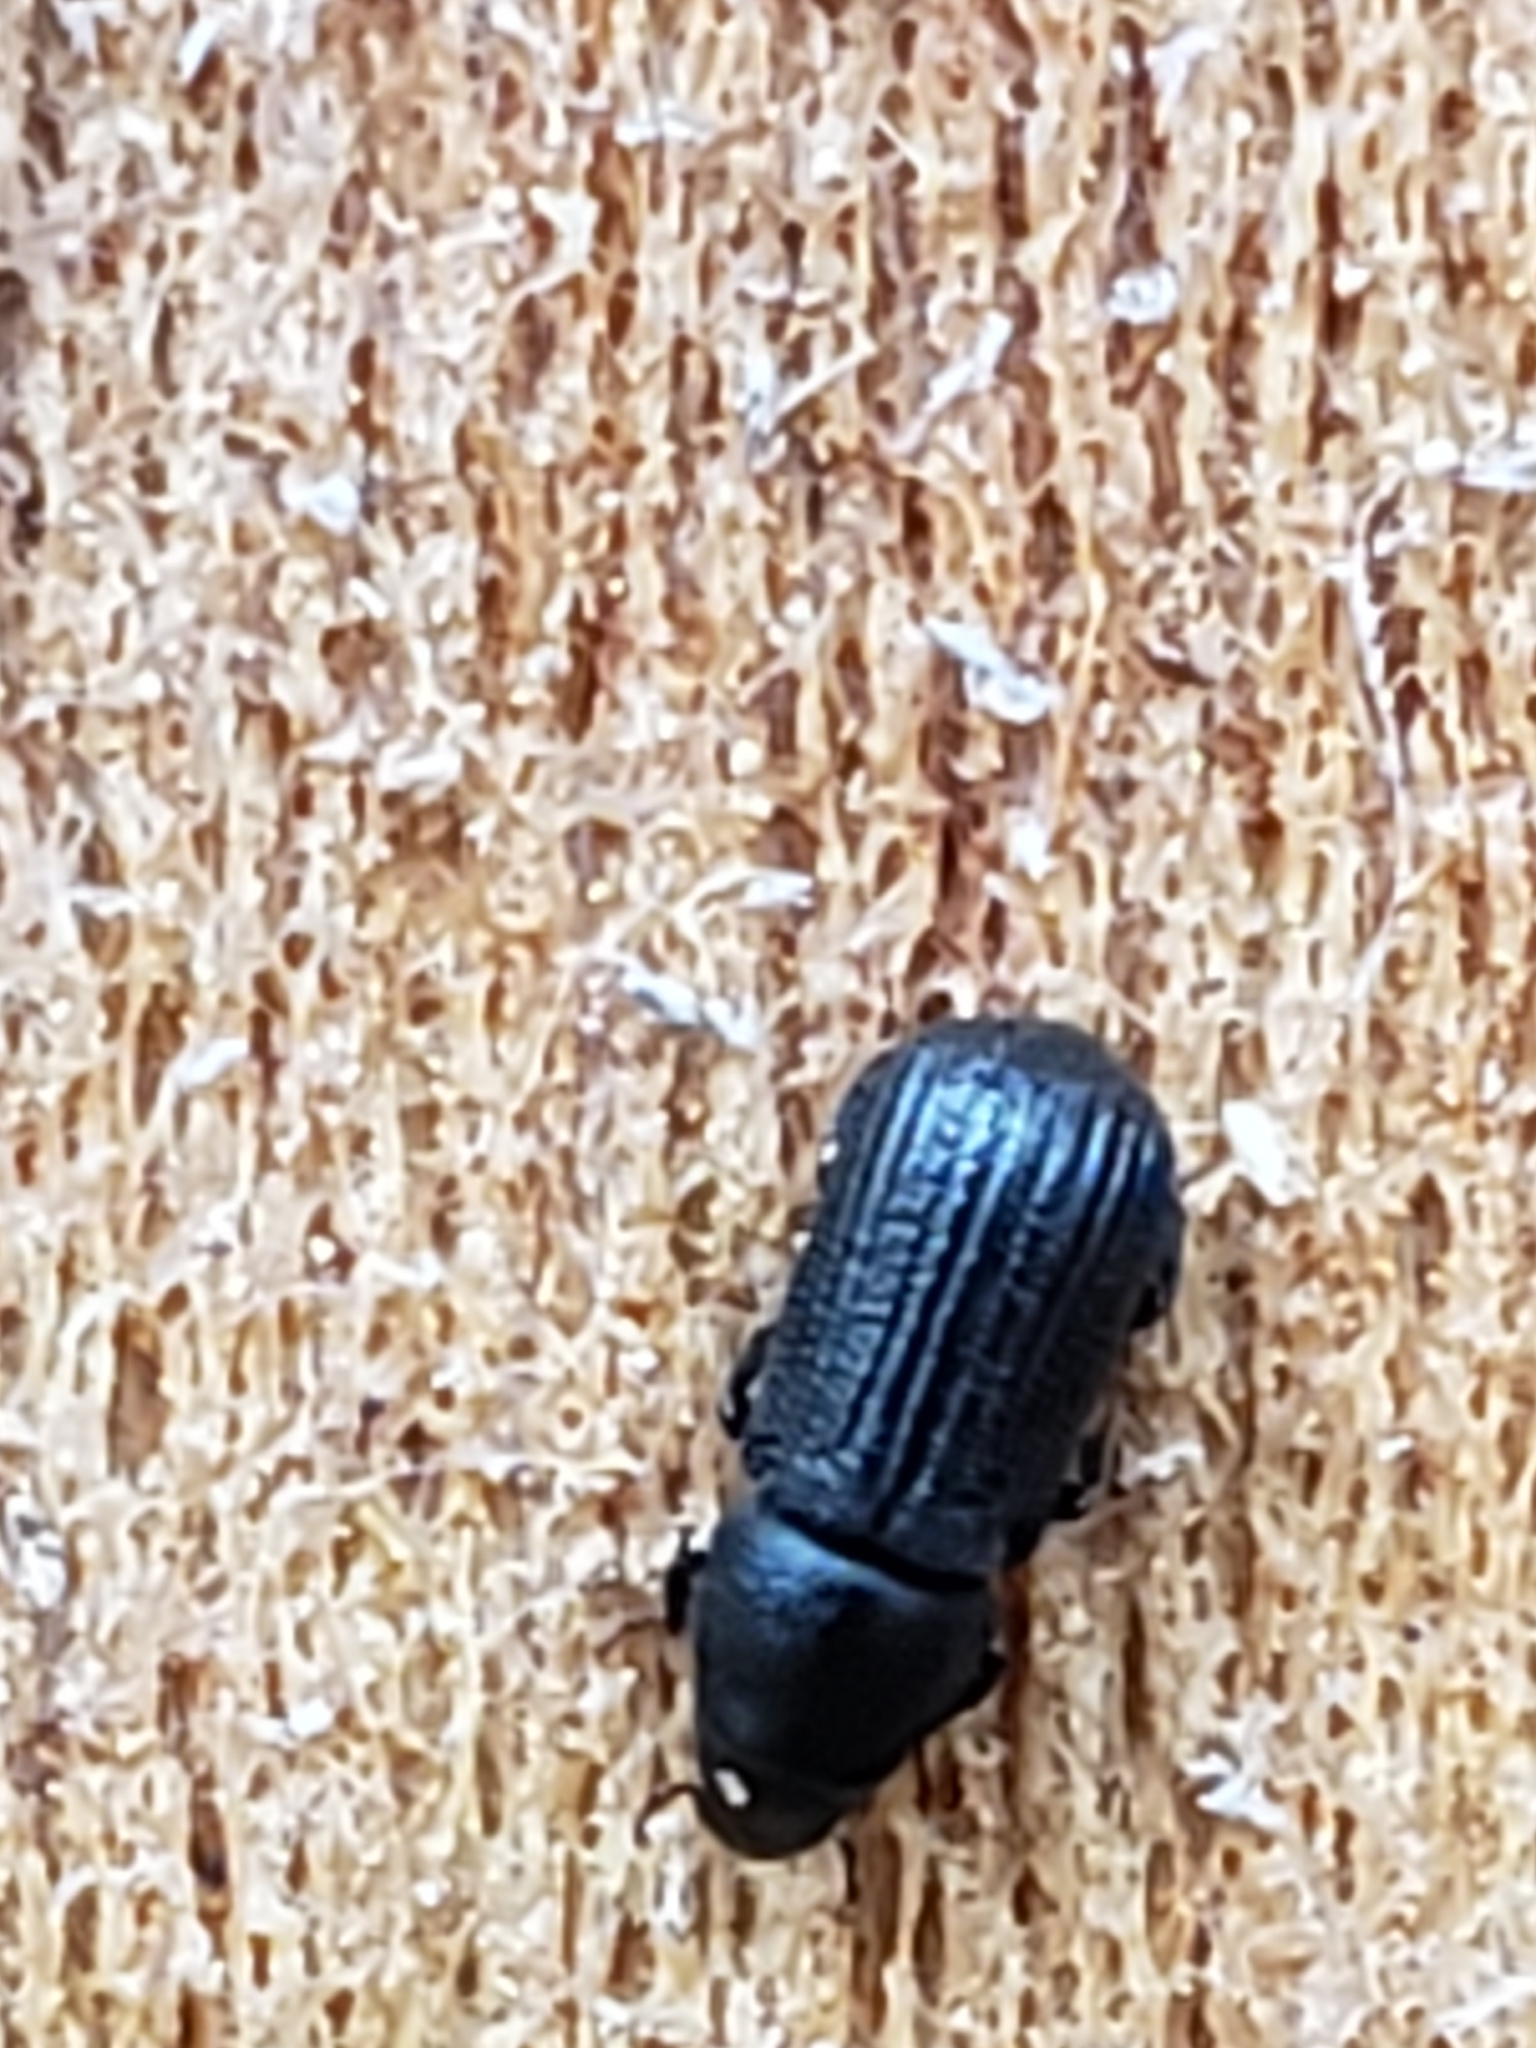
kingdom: Animalia
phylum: Arthropoda
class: Insecta
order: Coleoptera
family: Curculionidae
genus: Stenoscelis
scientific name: Stenoscelis brevis
